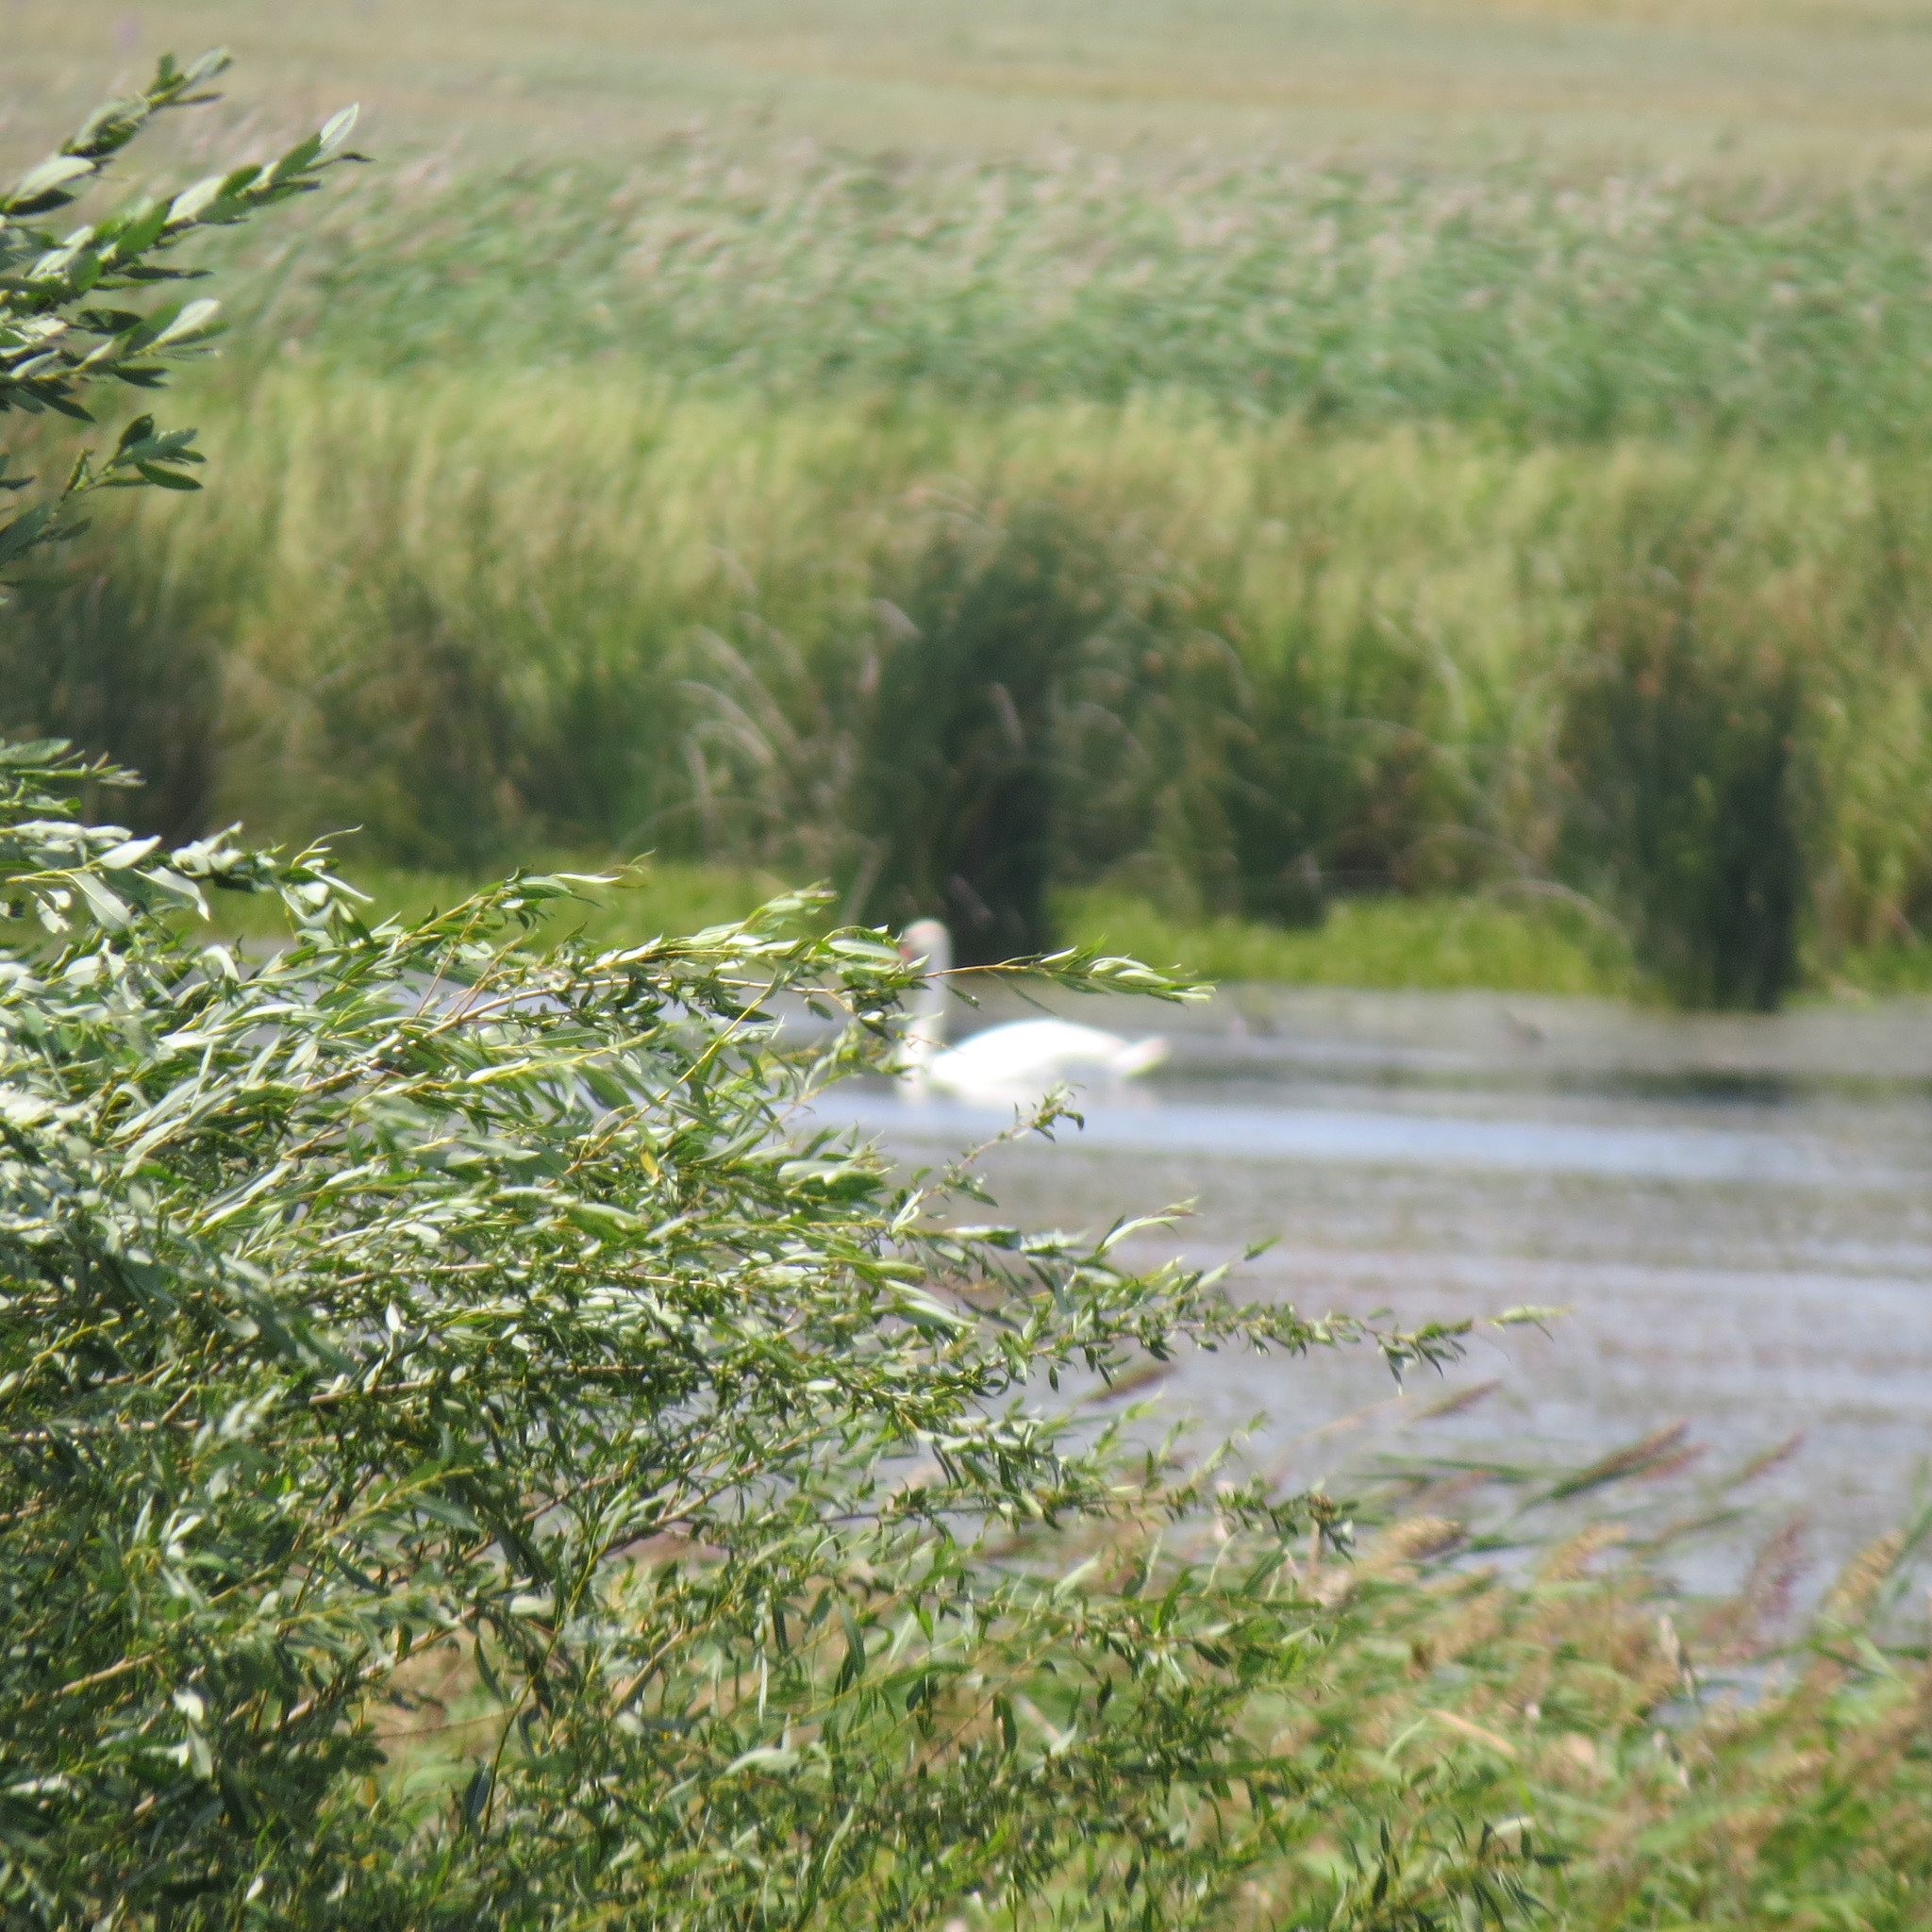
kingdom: Animalia
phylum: Chordata
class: Aves
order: Anseriformes
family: Anatidae
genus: Cygnus
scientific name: Cygnus olor
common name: Mute swan
